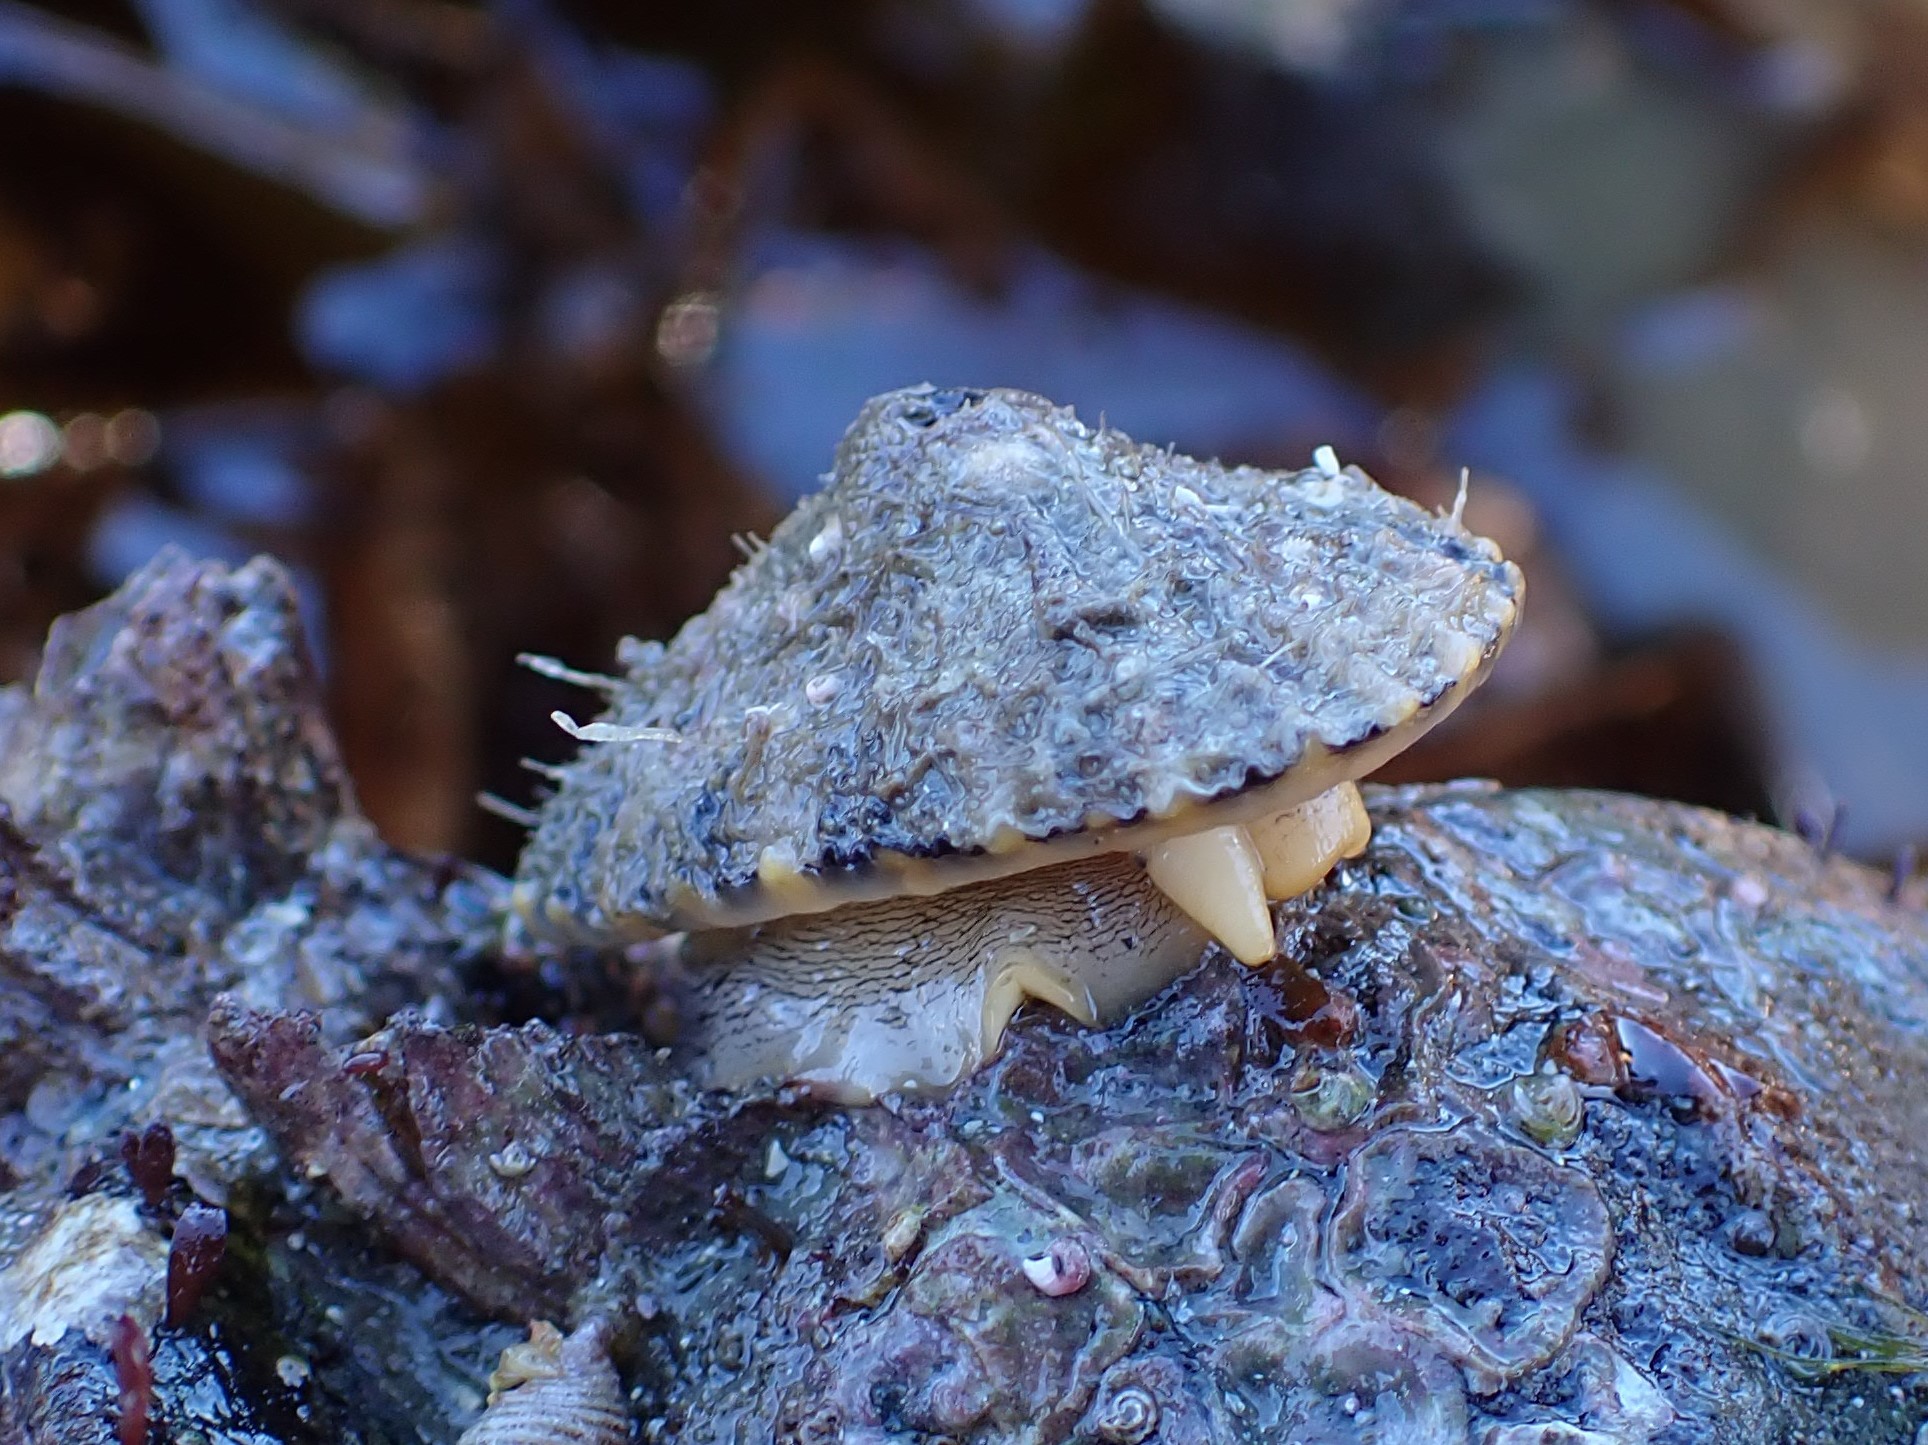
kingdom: Animalia
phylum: Mollusca
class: Gastropoda
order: Lepetellida
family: Fissurellidae
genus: Diodora
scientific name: Diodora aspera
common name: Rough keyhole limpet
